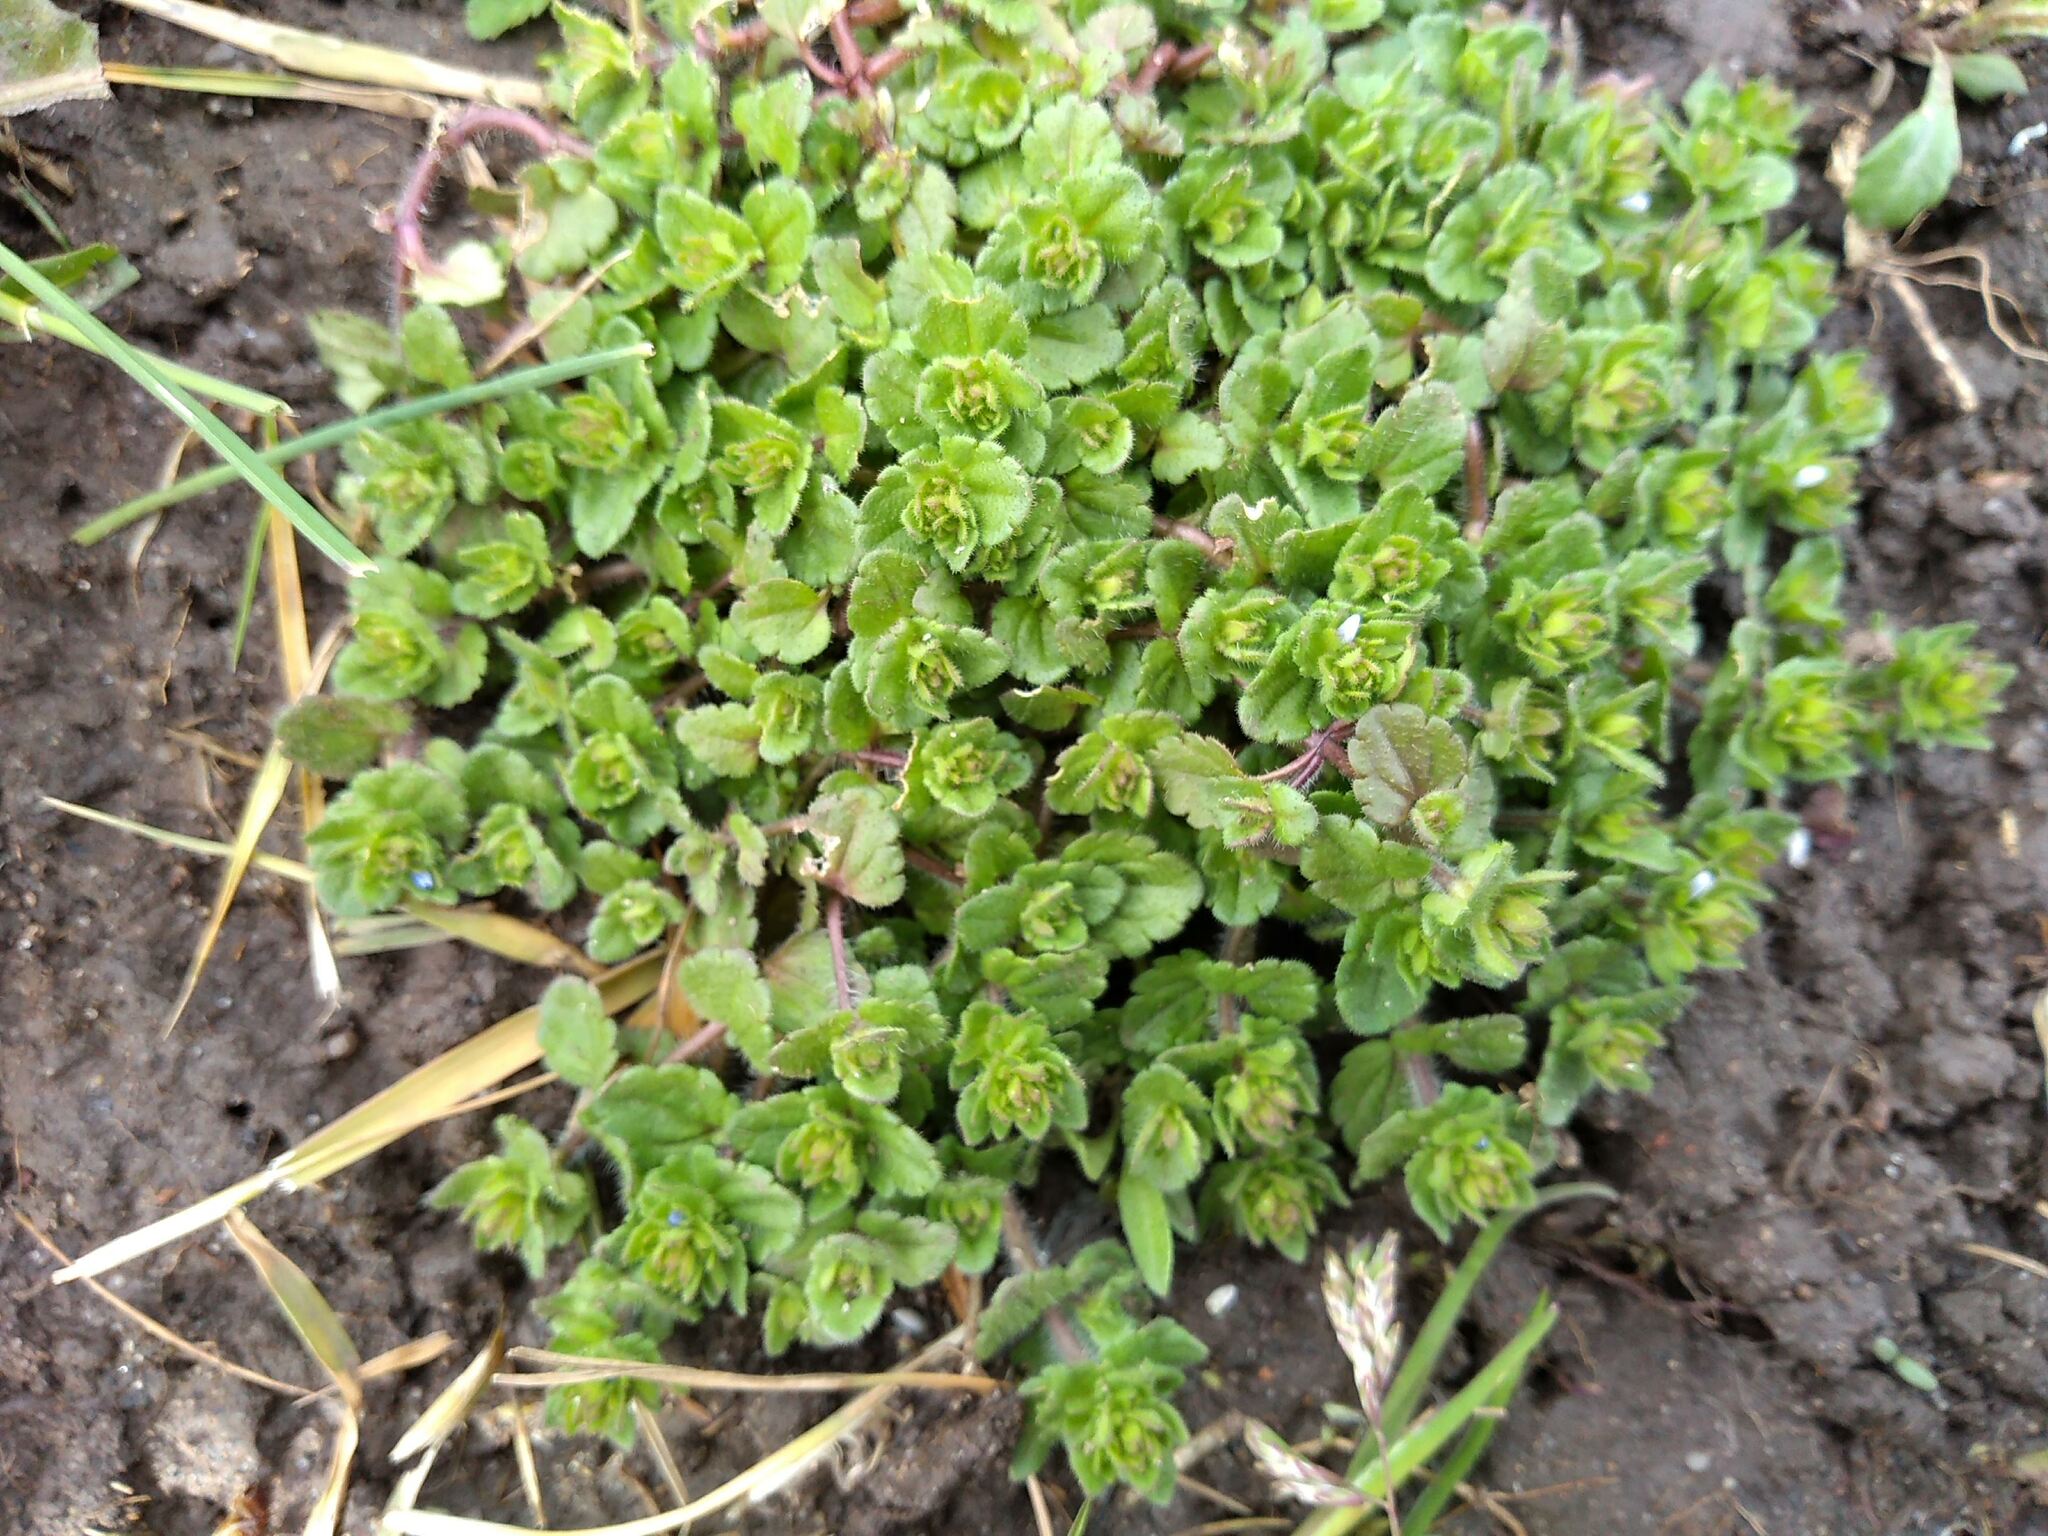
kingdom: Plantae
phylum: Tracheophyta
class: Magnoliopsida
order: Lamiales
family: Plantaginaceae
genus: Veronica
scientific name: Veronica arvensis
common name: Corn speedwell
